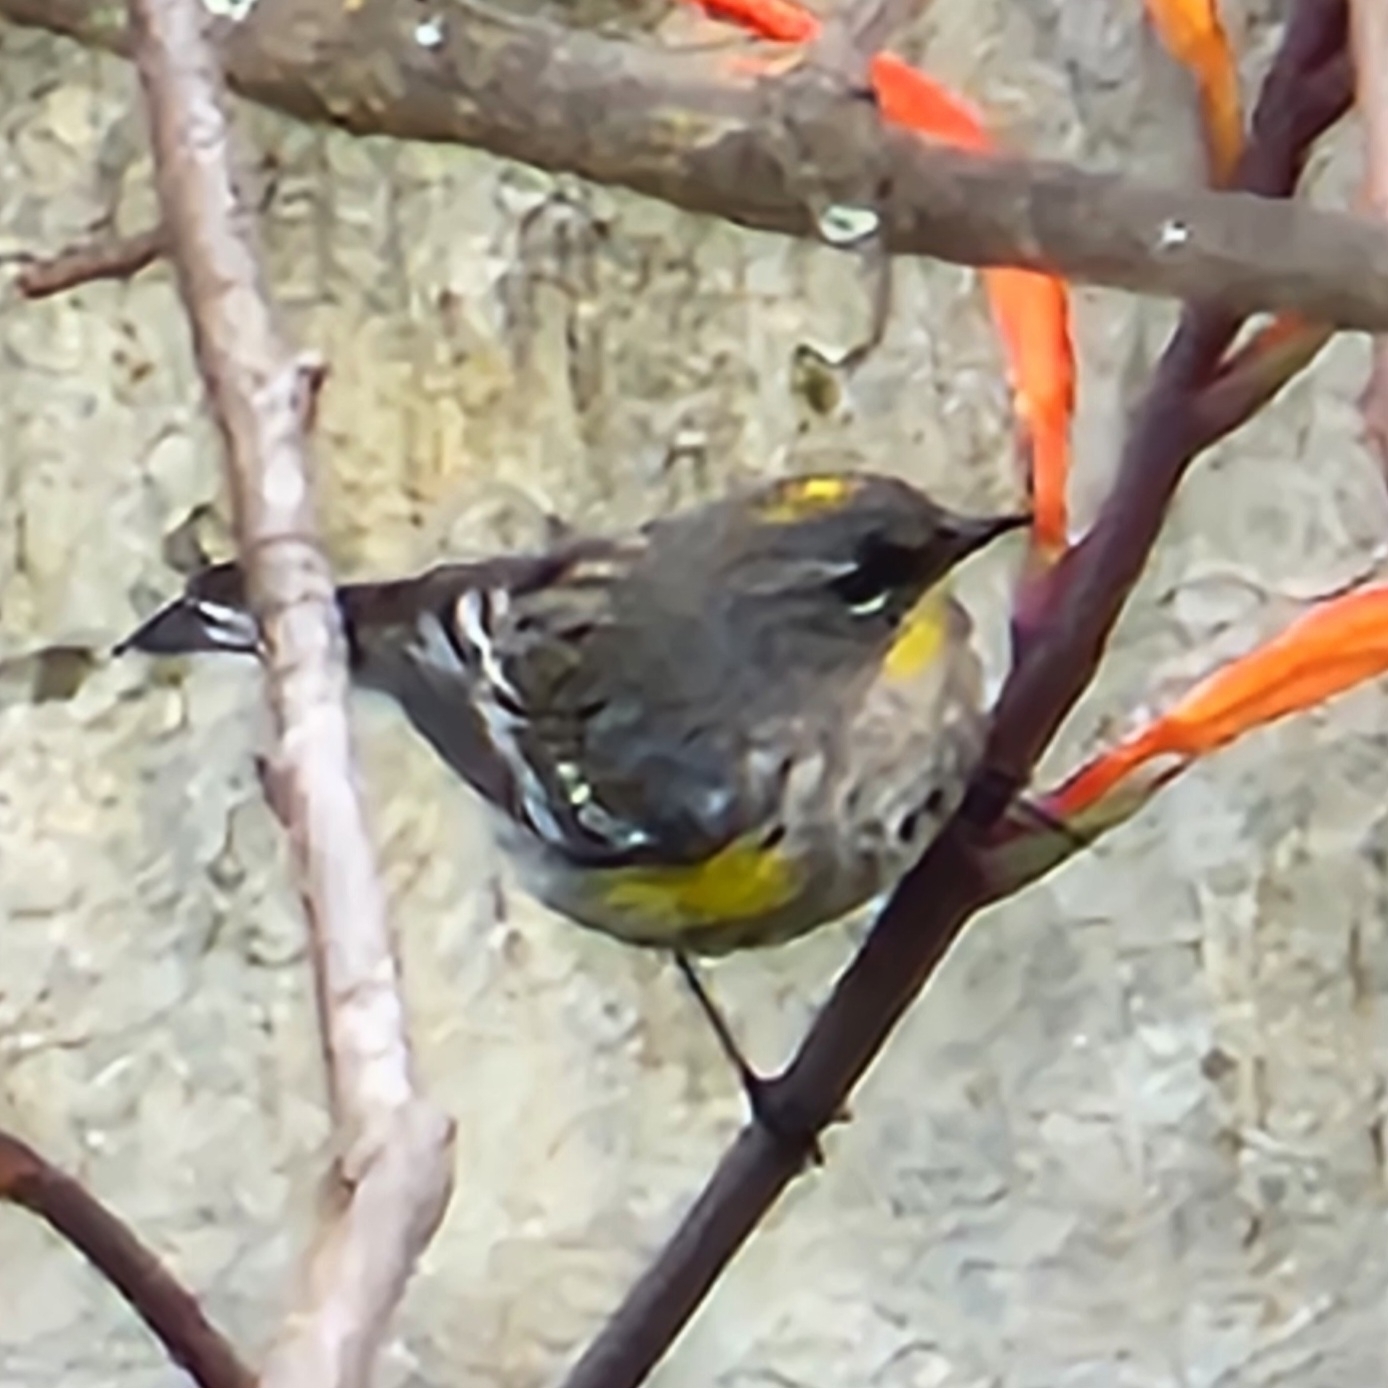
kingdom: Animalia
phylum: Chordata
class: Aves
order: Passeriformes
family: Parulidae
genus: Setophaga
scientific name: Setophaga coronata
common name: Myrtle warbler
